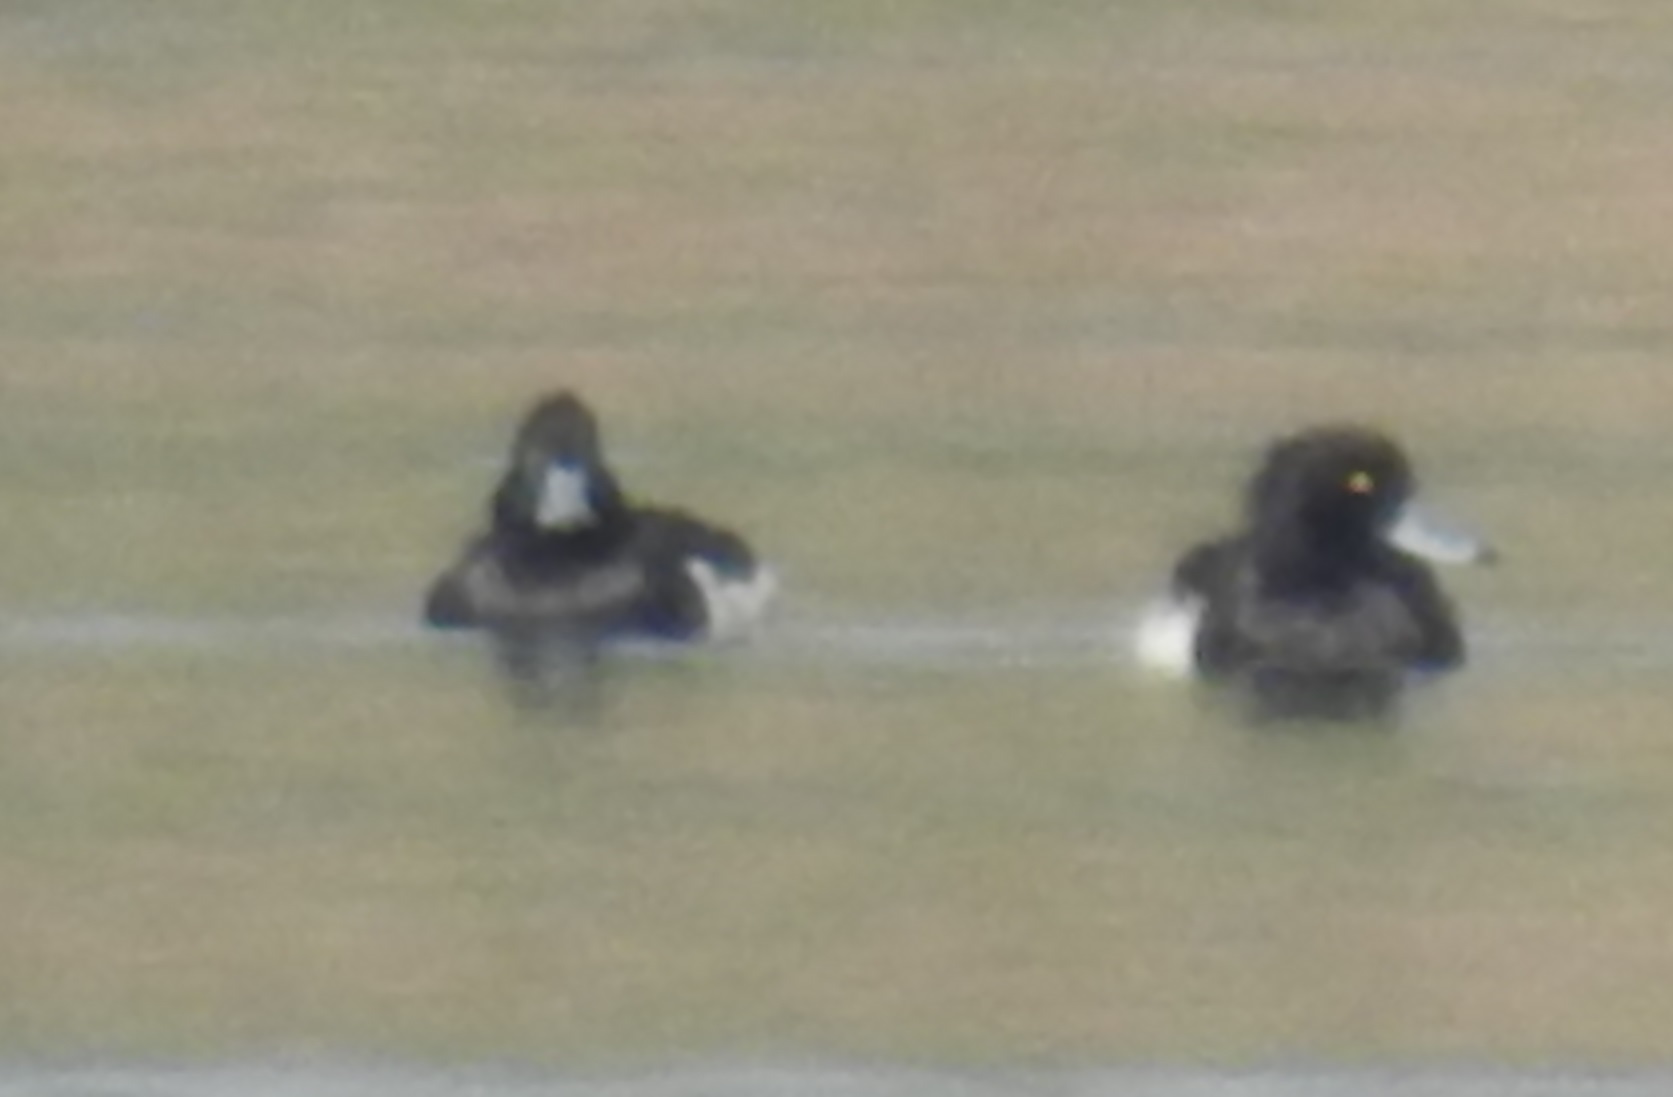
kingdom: Animalia
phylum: Chordata
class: Aves
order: Anseriformes
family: Anatidae
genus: Aythya
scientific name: Aythya fuligula
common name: Tufted duck
